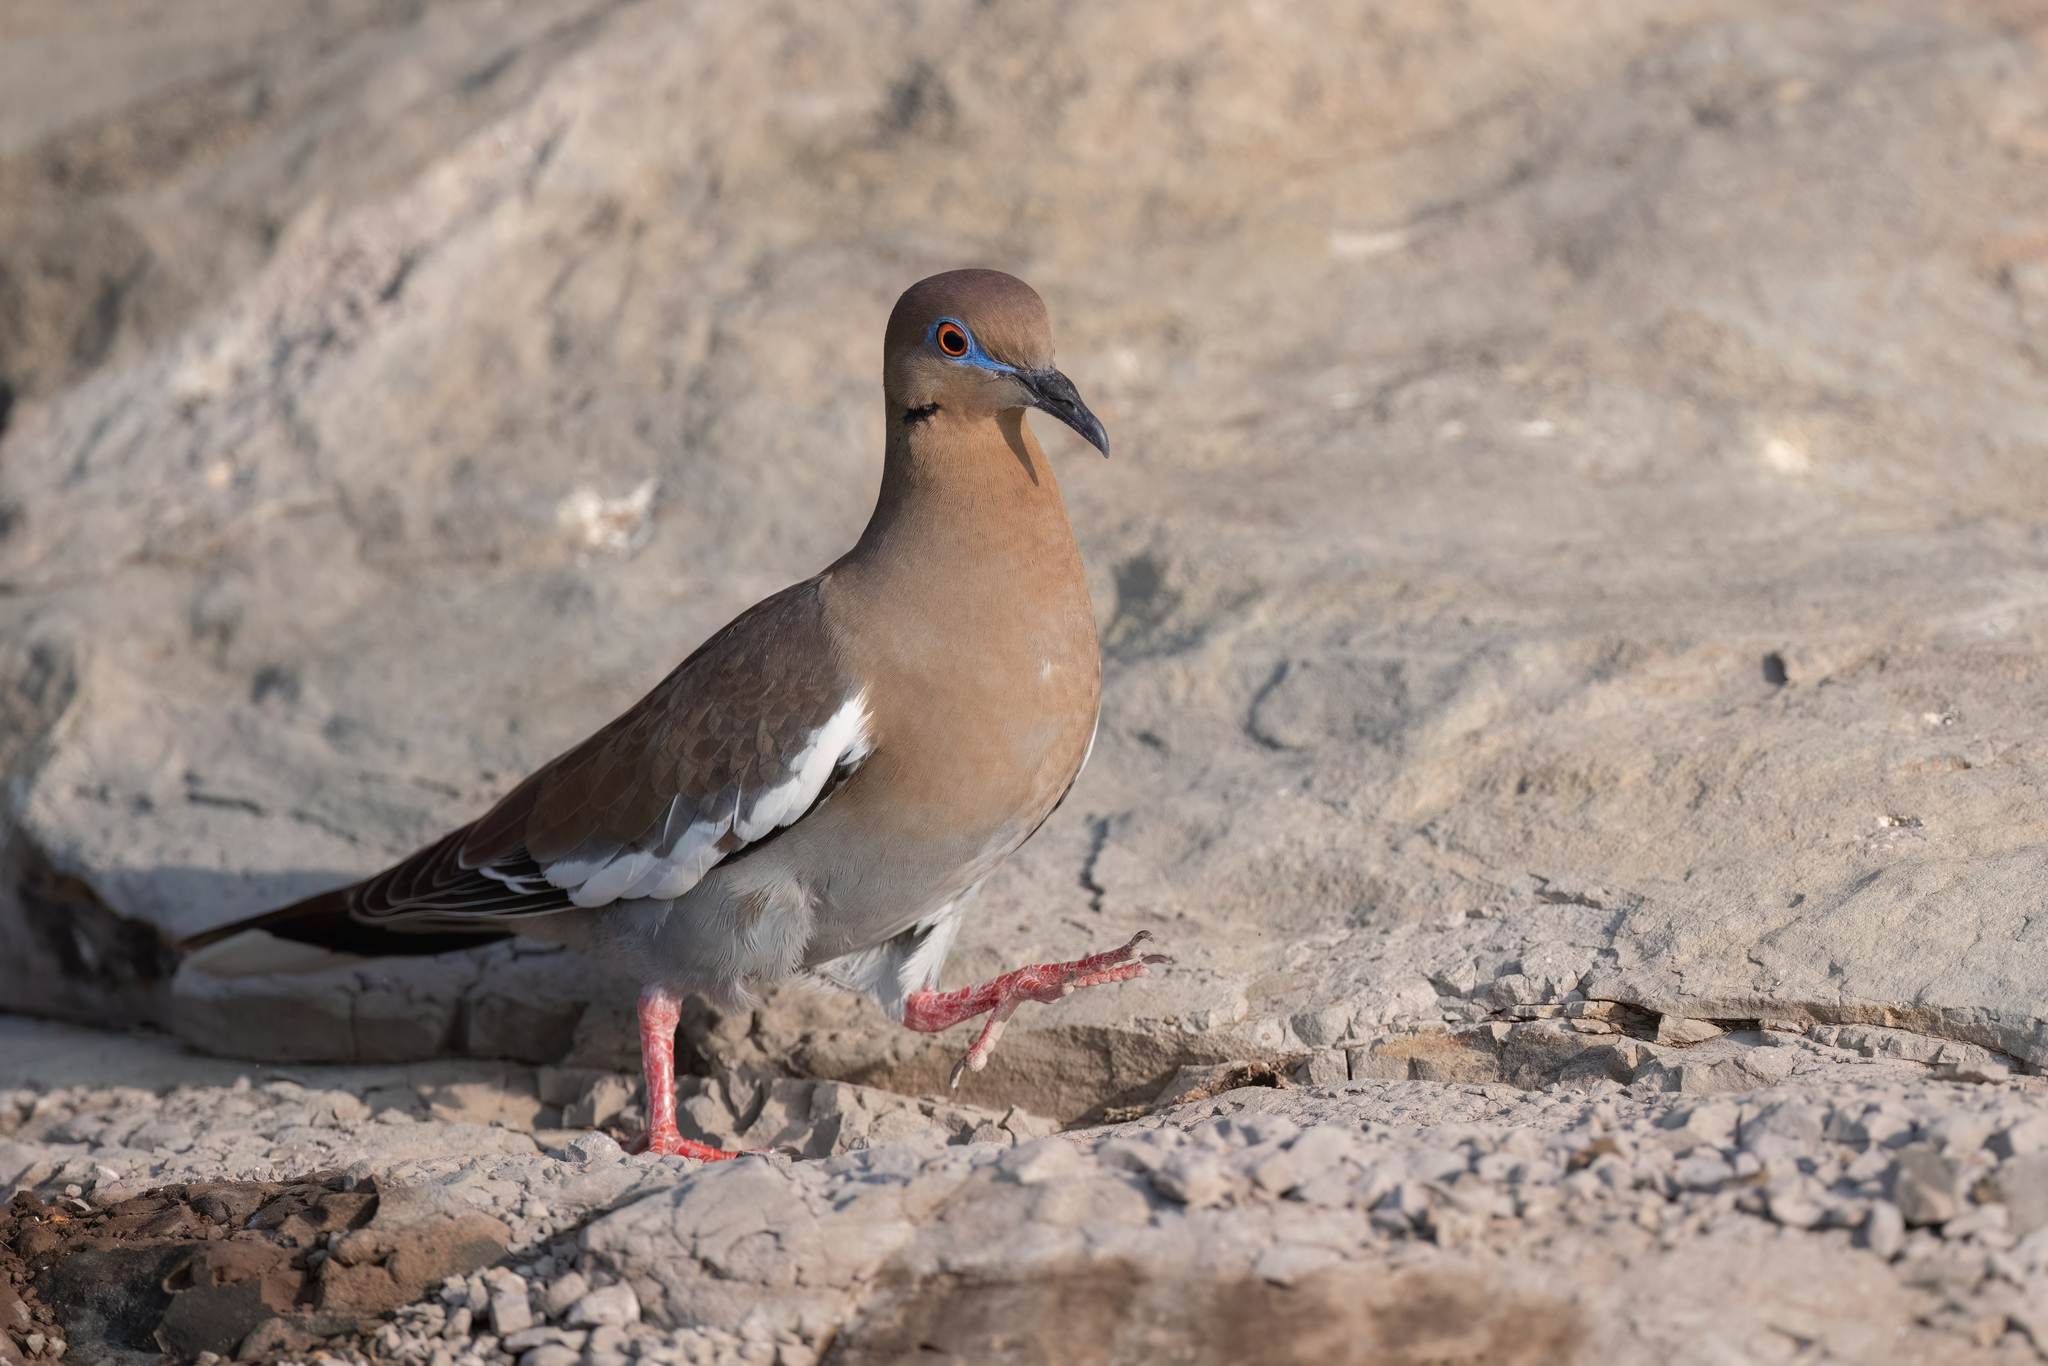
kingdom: Animalia
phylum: Chordata
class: Aves
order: Columbiformes
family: Columbidae
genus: Zenaida
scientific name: Zenaida asiatica
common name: White-winged dove
